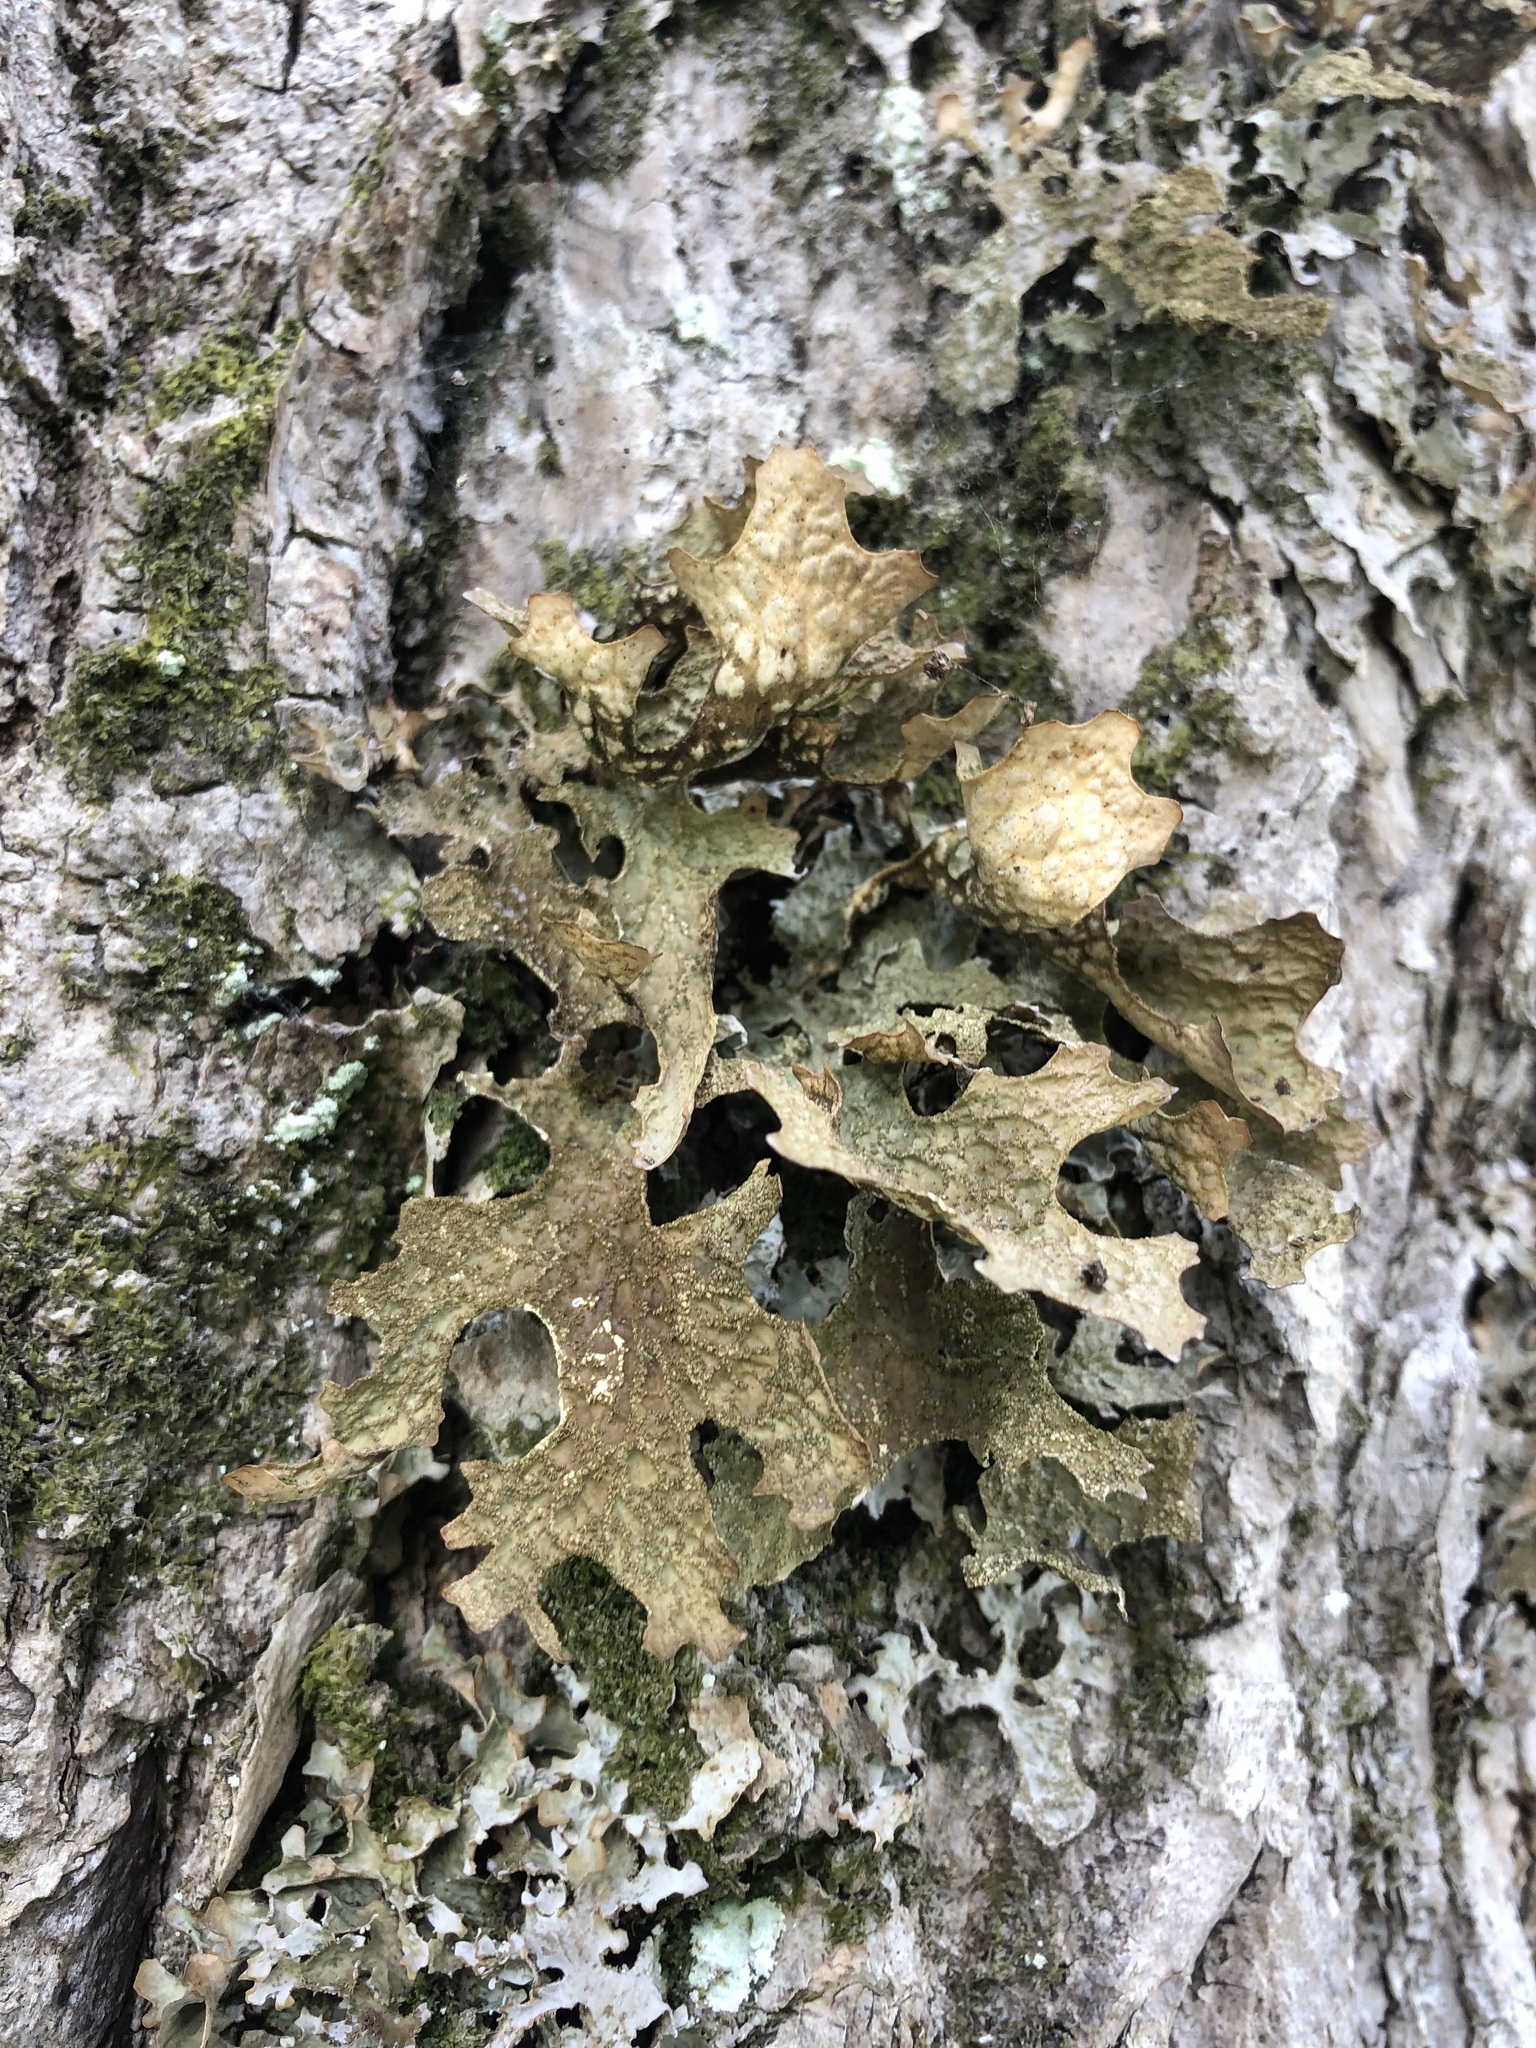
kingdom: Fungi
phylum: Ascomycota
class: Lecanoromycetes
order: Peltigerales
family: Lobariaceae
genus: Lobaria
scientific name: Lobaria pulmonaria
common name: Lungwort
